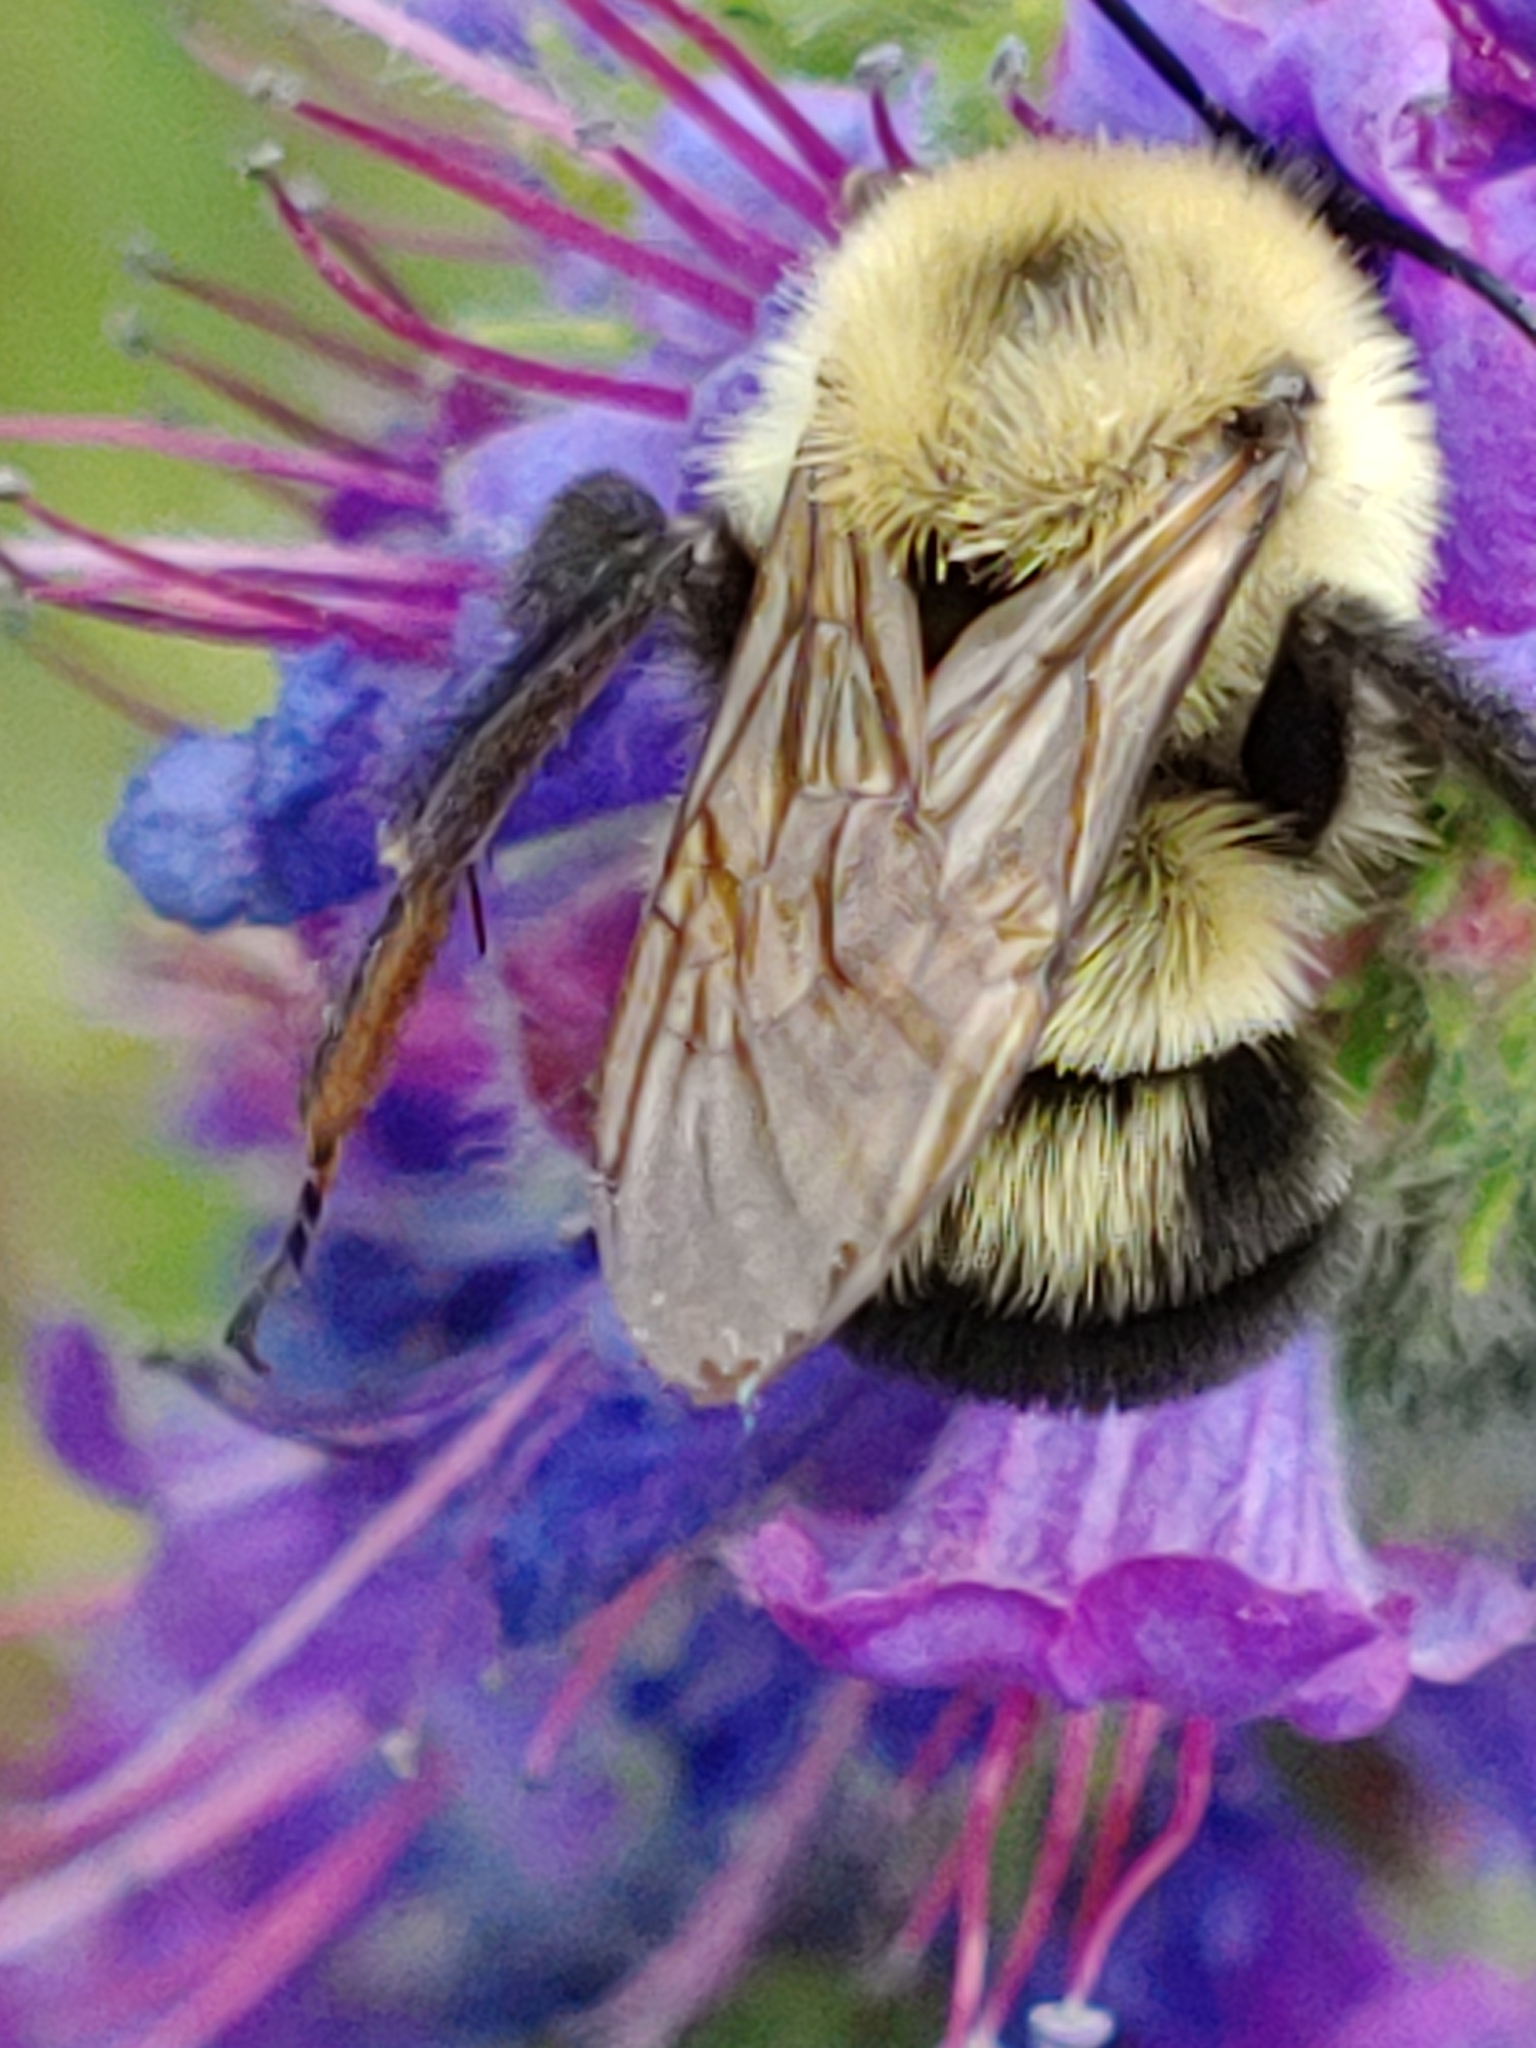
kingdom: Animalia
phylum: Arthropoda
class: Insecta
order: Hymenoptera
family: Apidae
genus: Bombus
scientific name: Bombus bimaculatus
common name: Two-spotted bumble bee
